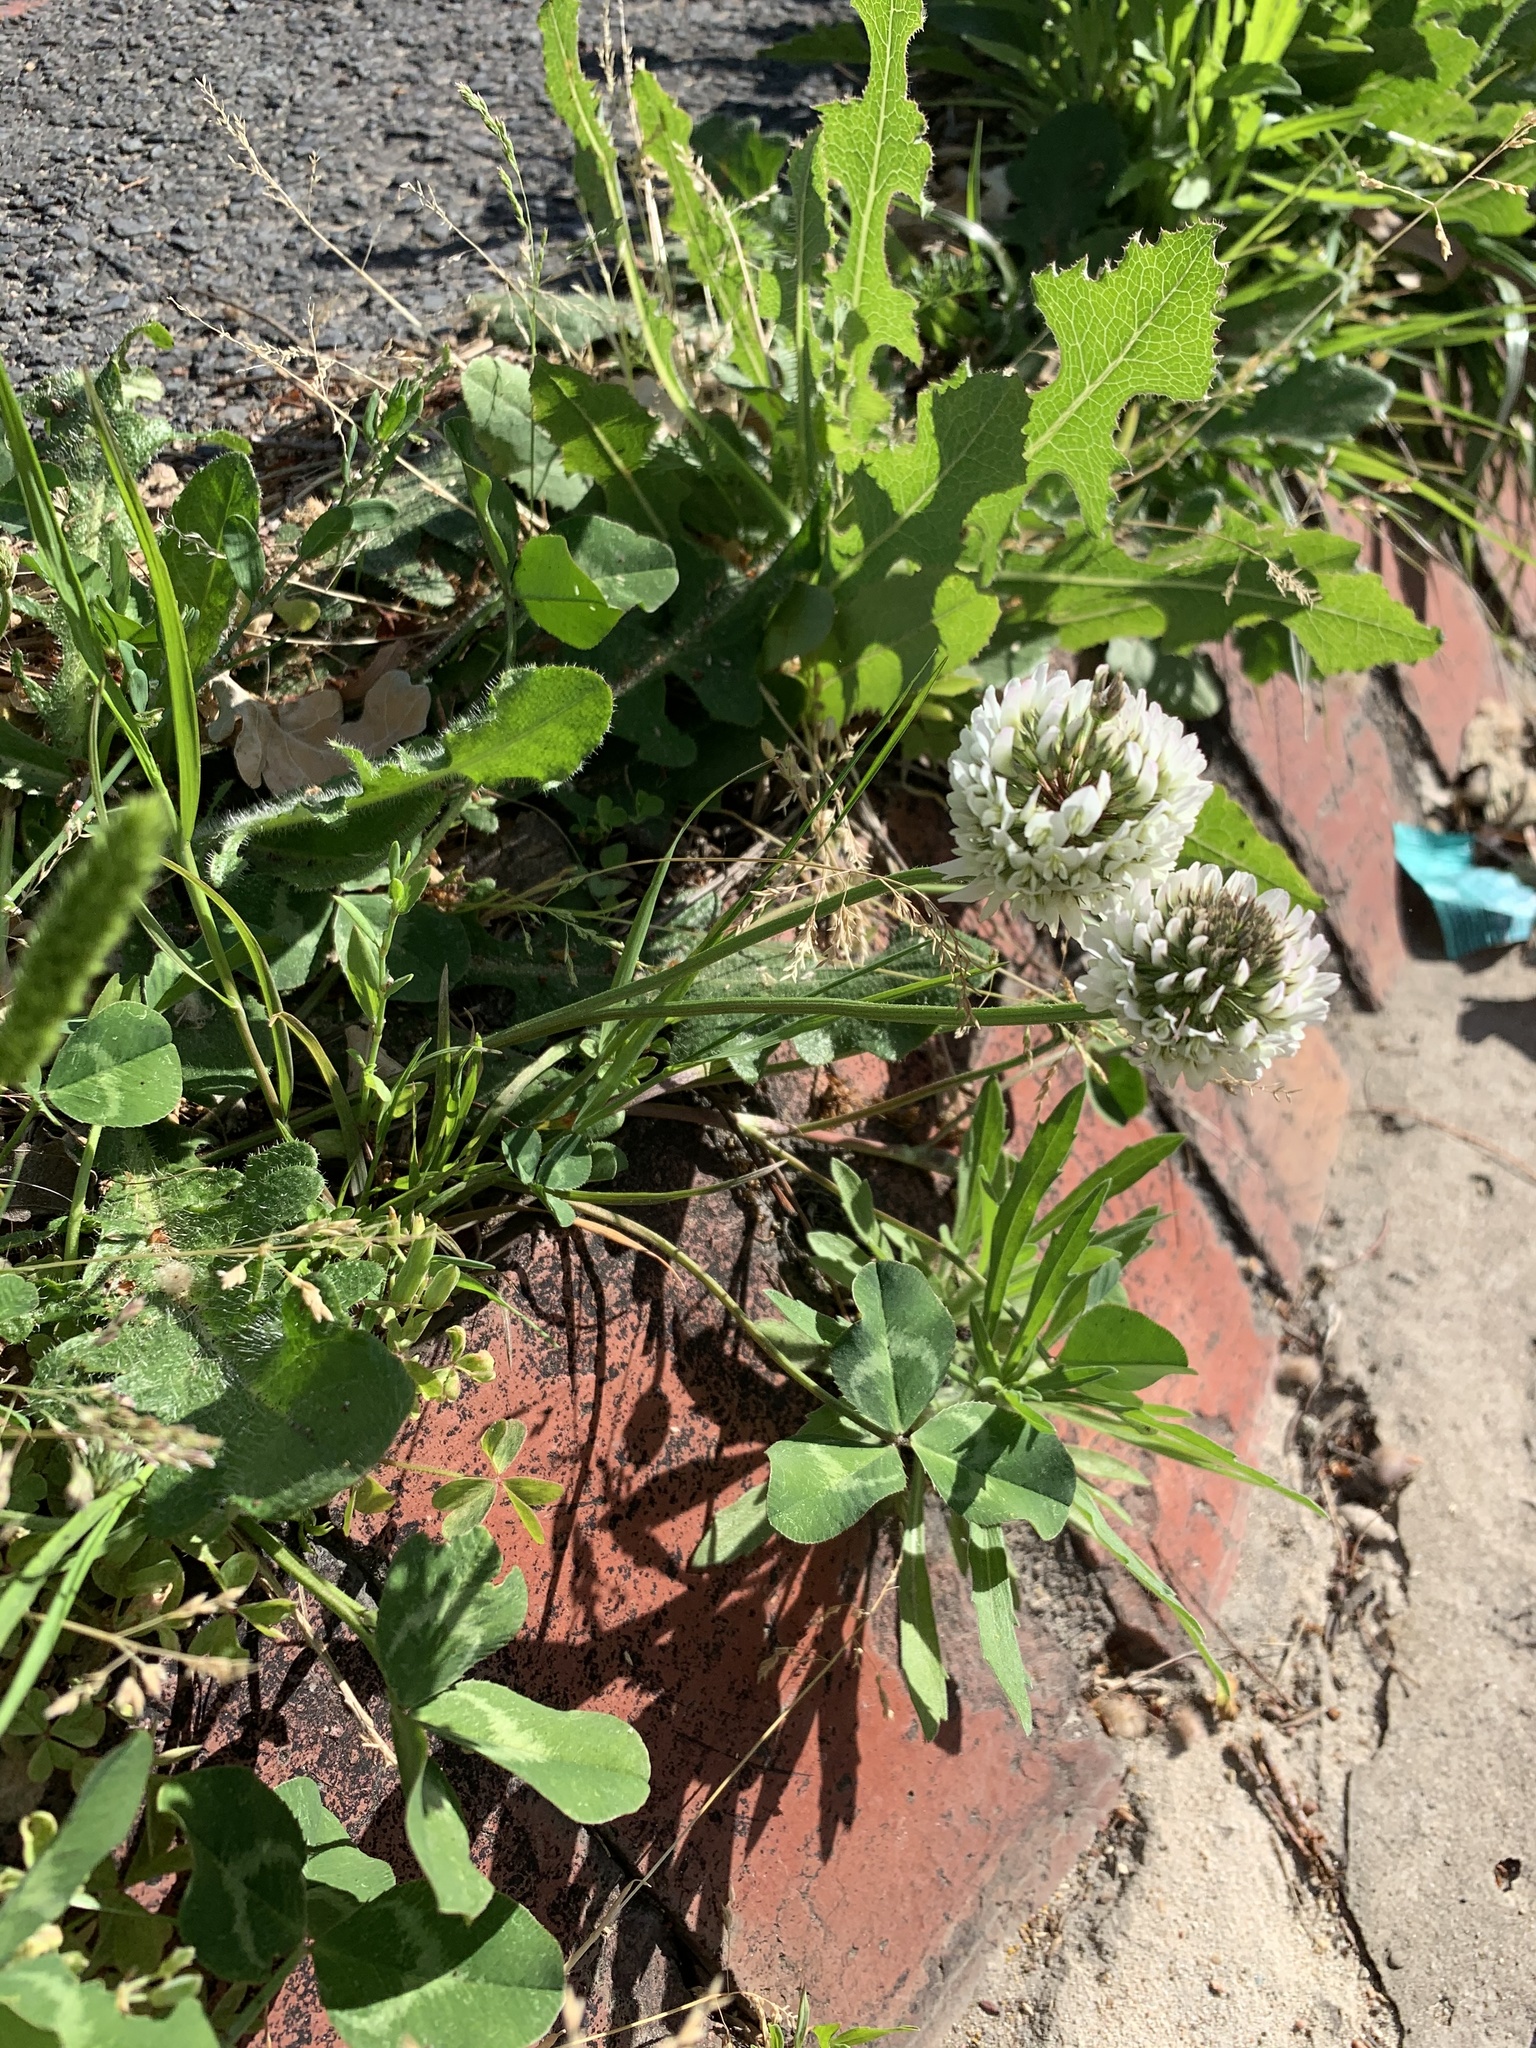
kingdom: Plantae
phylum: Tracheophyta
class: Magnoliopsida
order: Fabales
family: Fabaceae
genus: Trifolium
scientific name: Trifolium repens
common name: White clover
